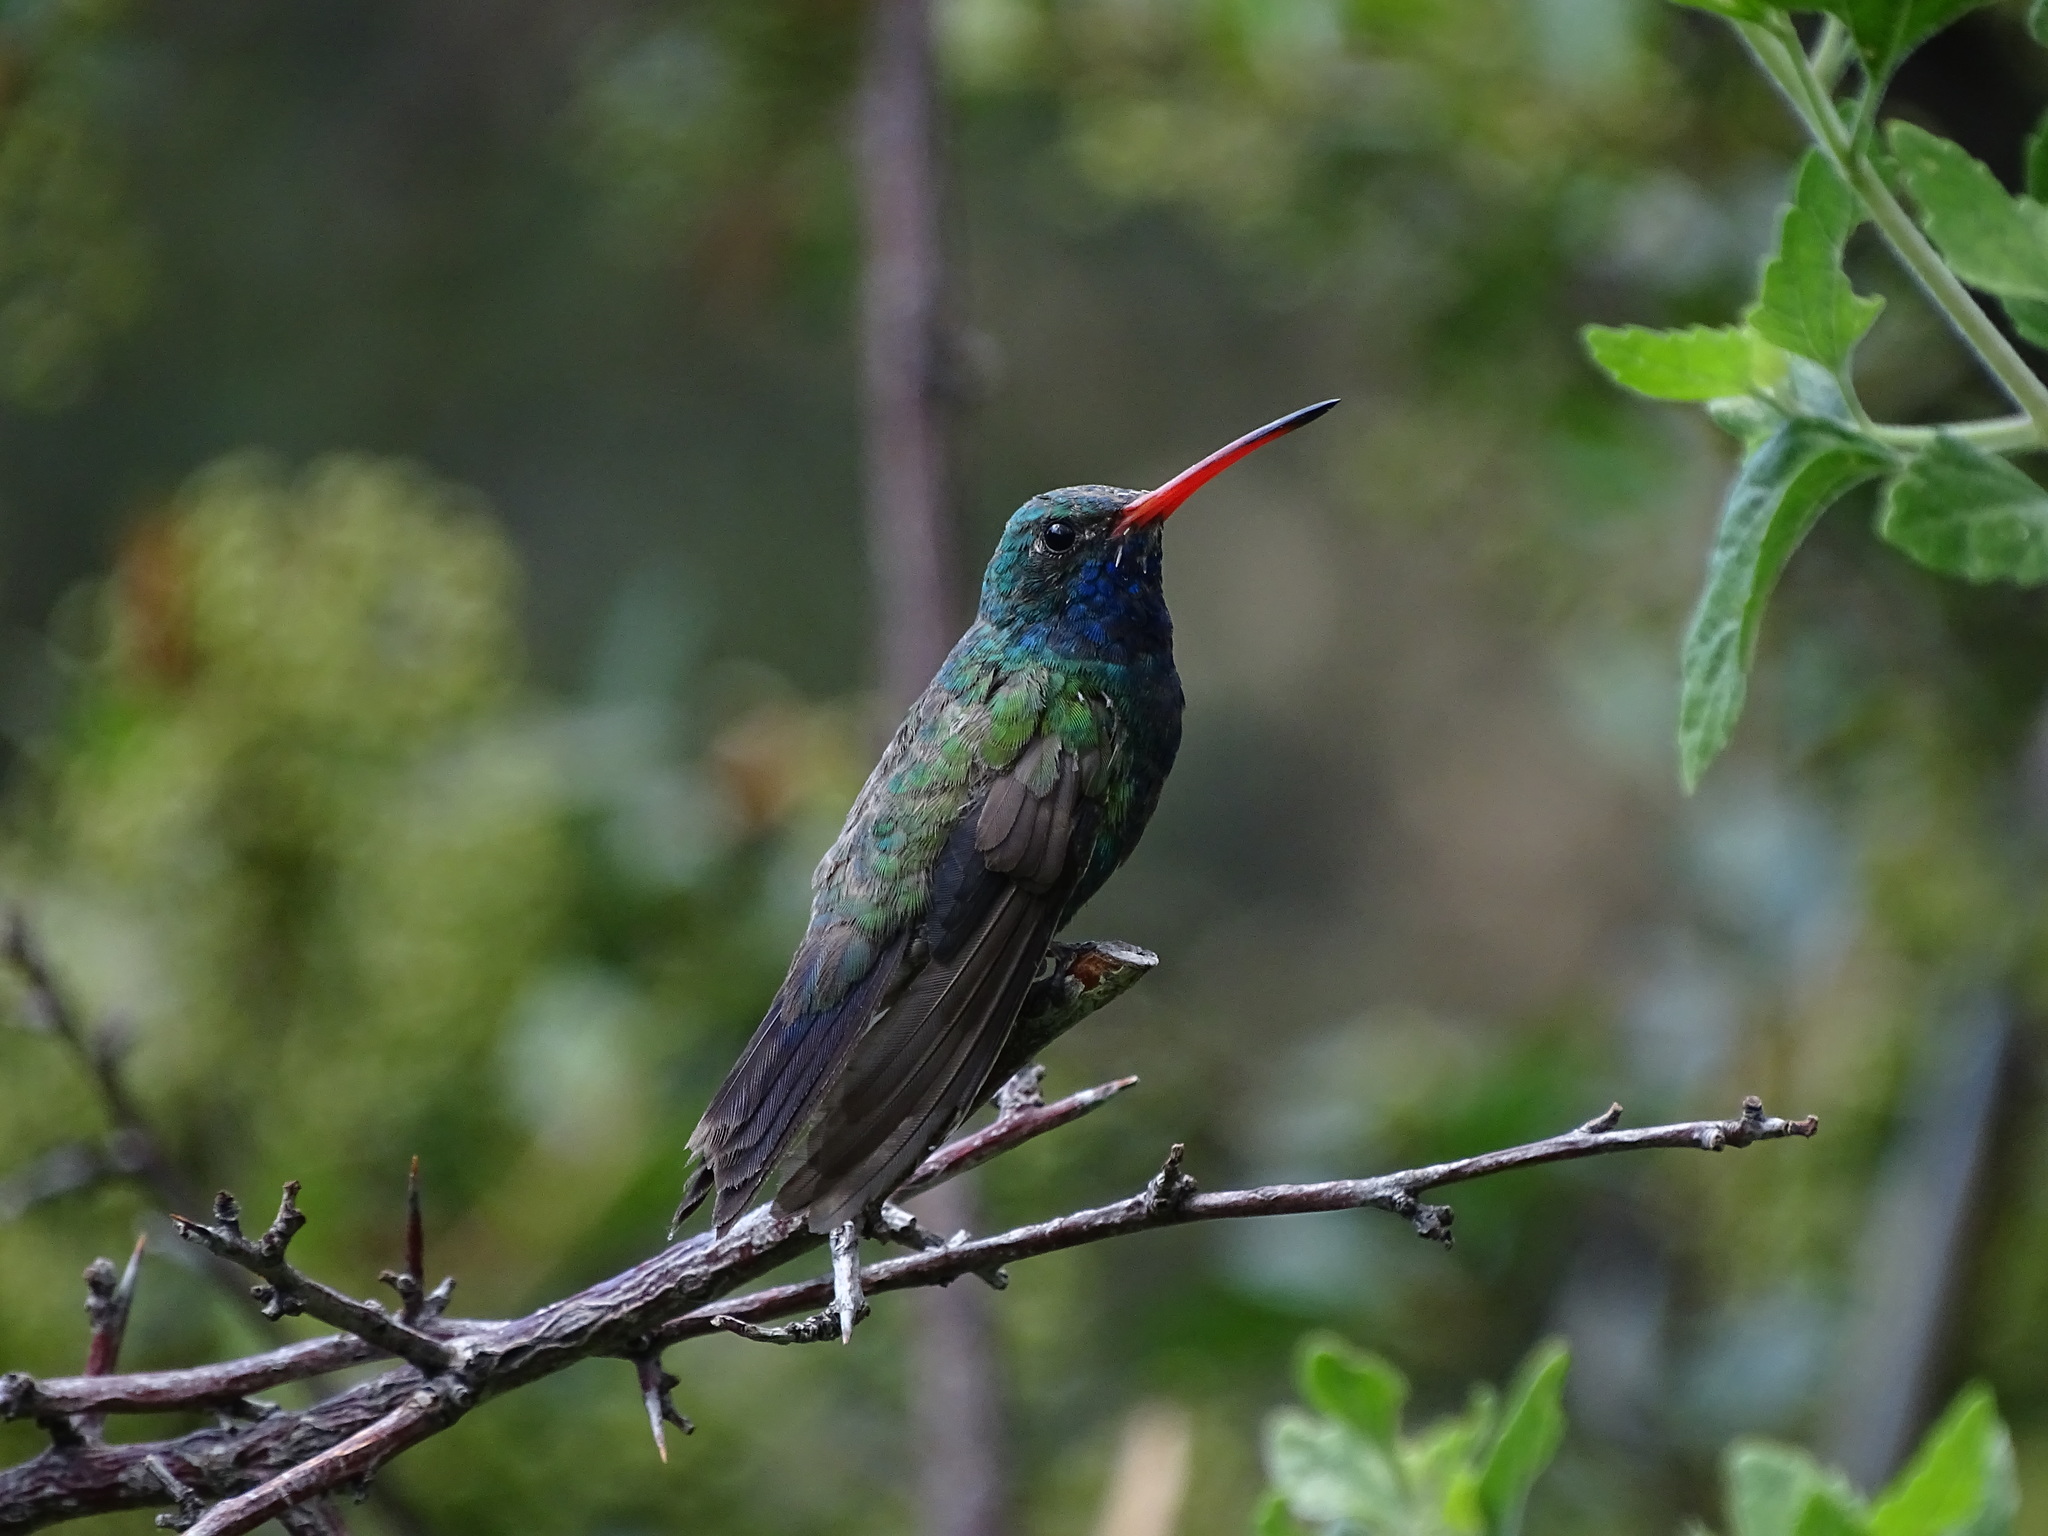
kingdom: Animalia
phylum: Chordata
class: Aves
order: Apodiformes
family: Trochilidae
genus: Cynanthus
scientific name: Cynanthus latirostris
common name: Broad-billed hummingbird
